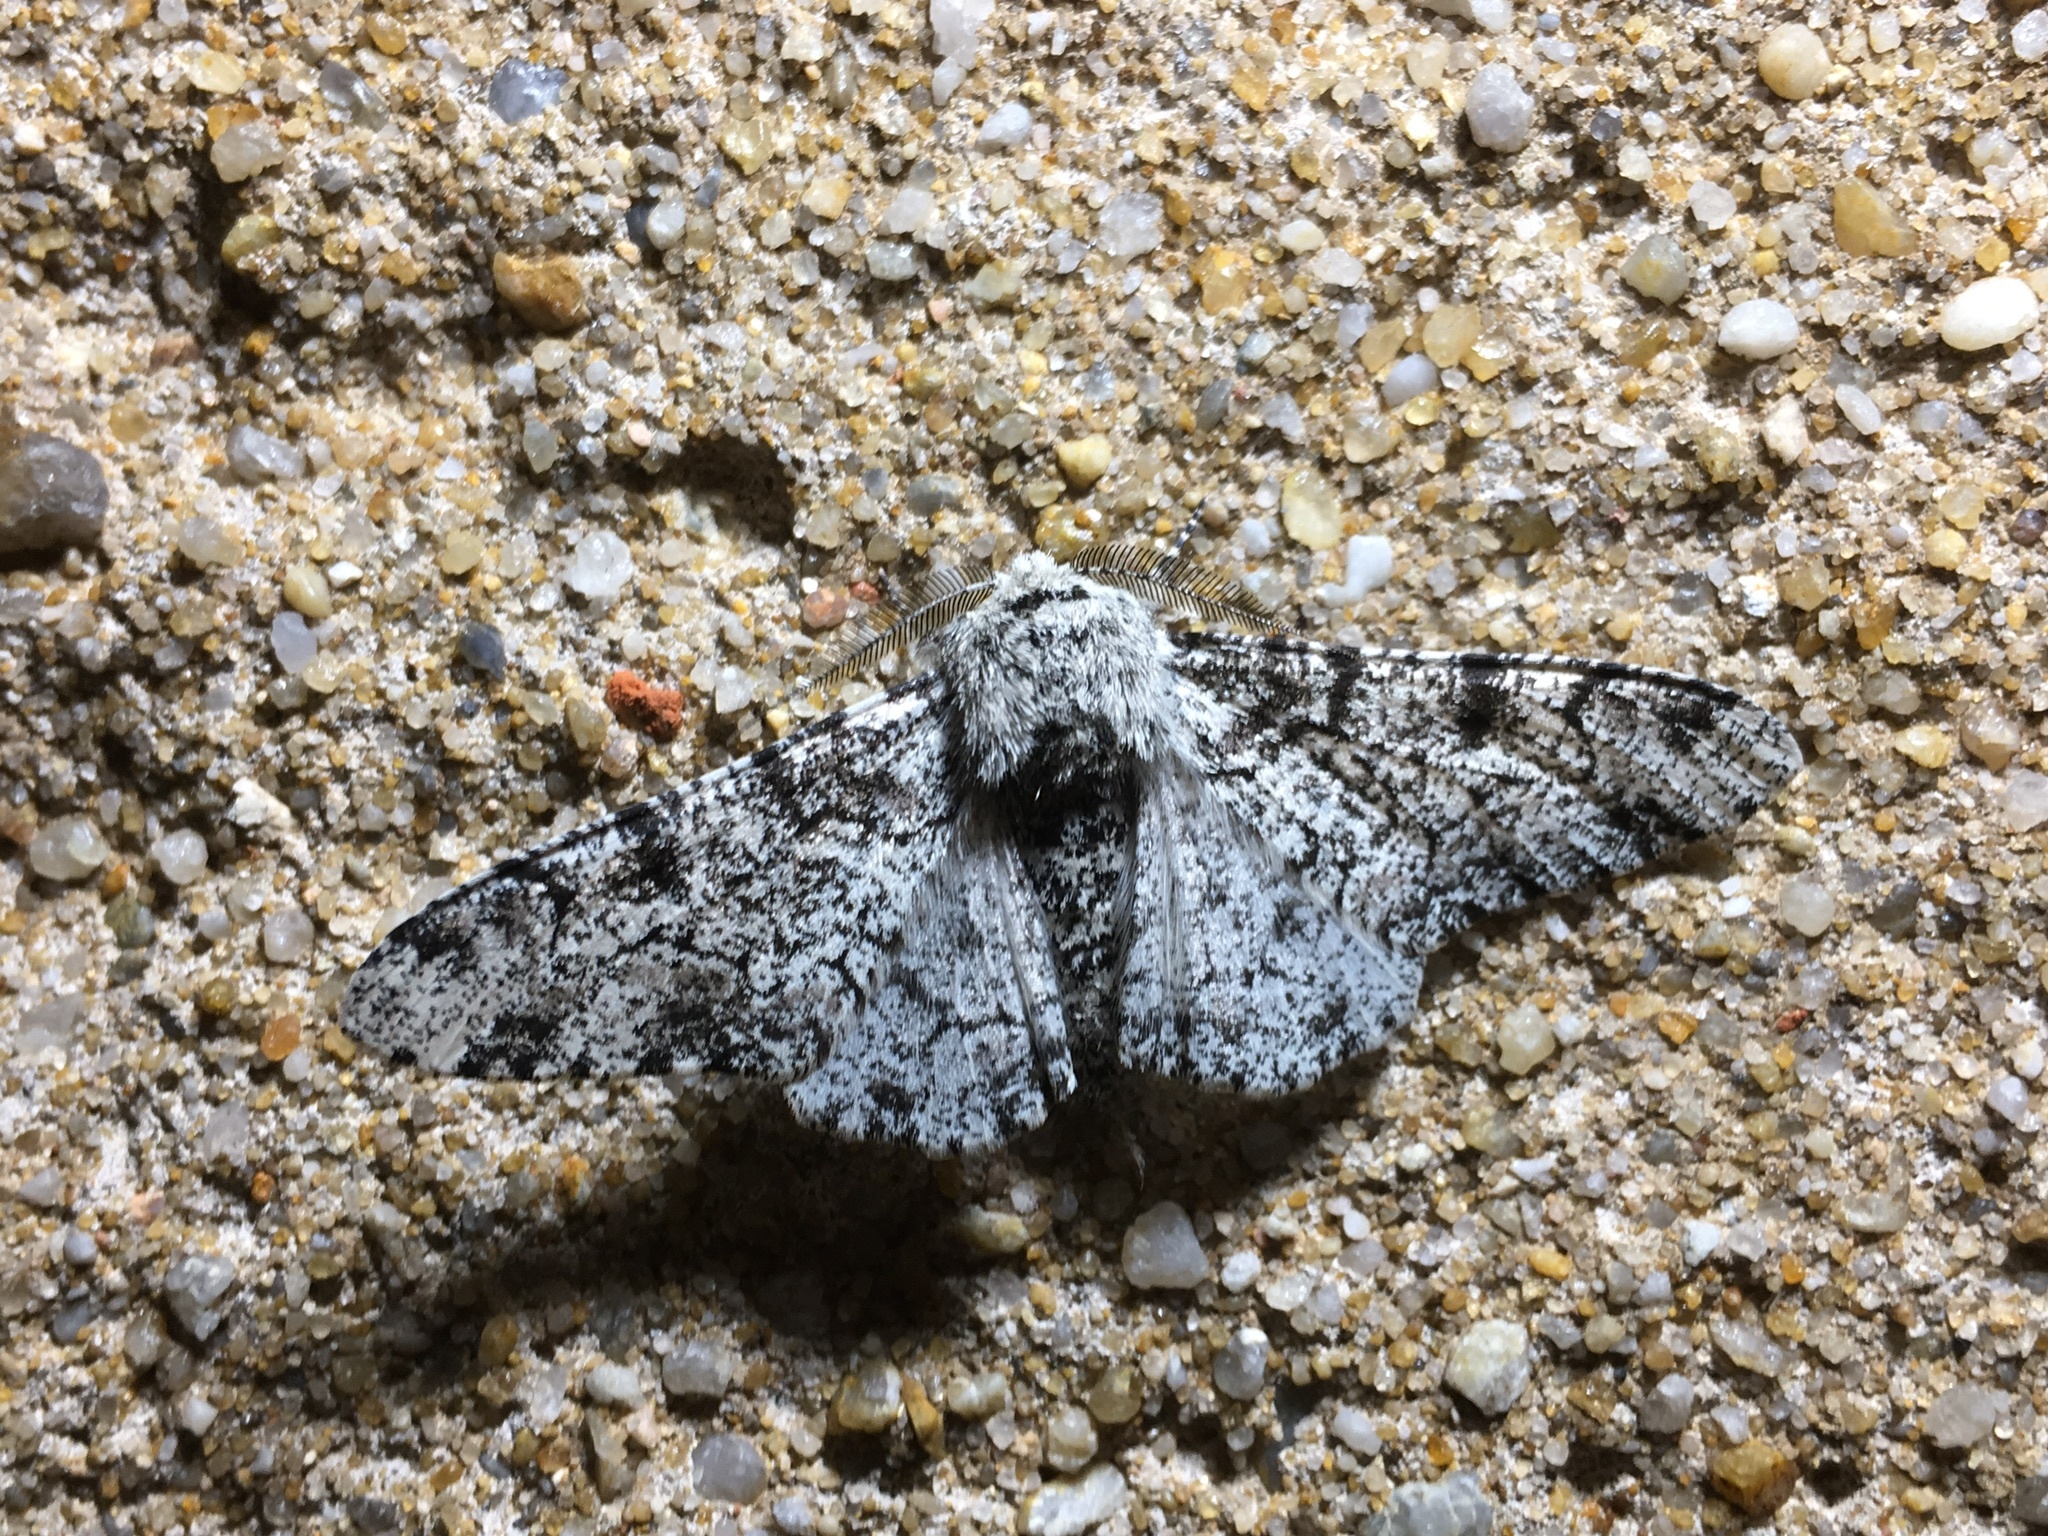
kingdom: Animalia
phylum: Arthropoda
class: Insecta
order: Lepidoptera
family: Geometridae
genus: Biston
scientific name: Biston betularia
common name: Peppered moth
